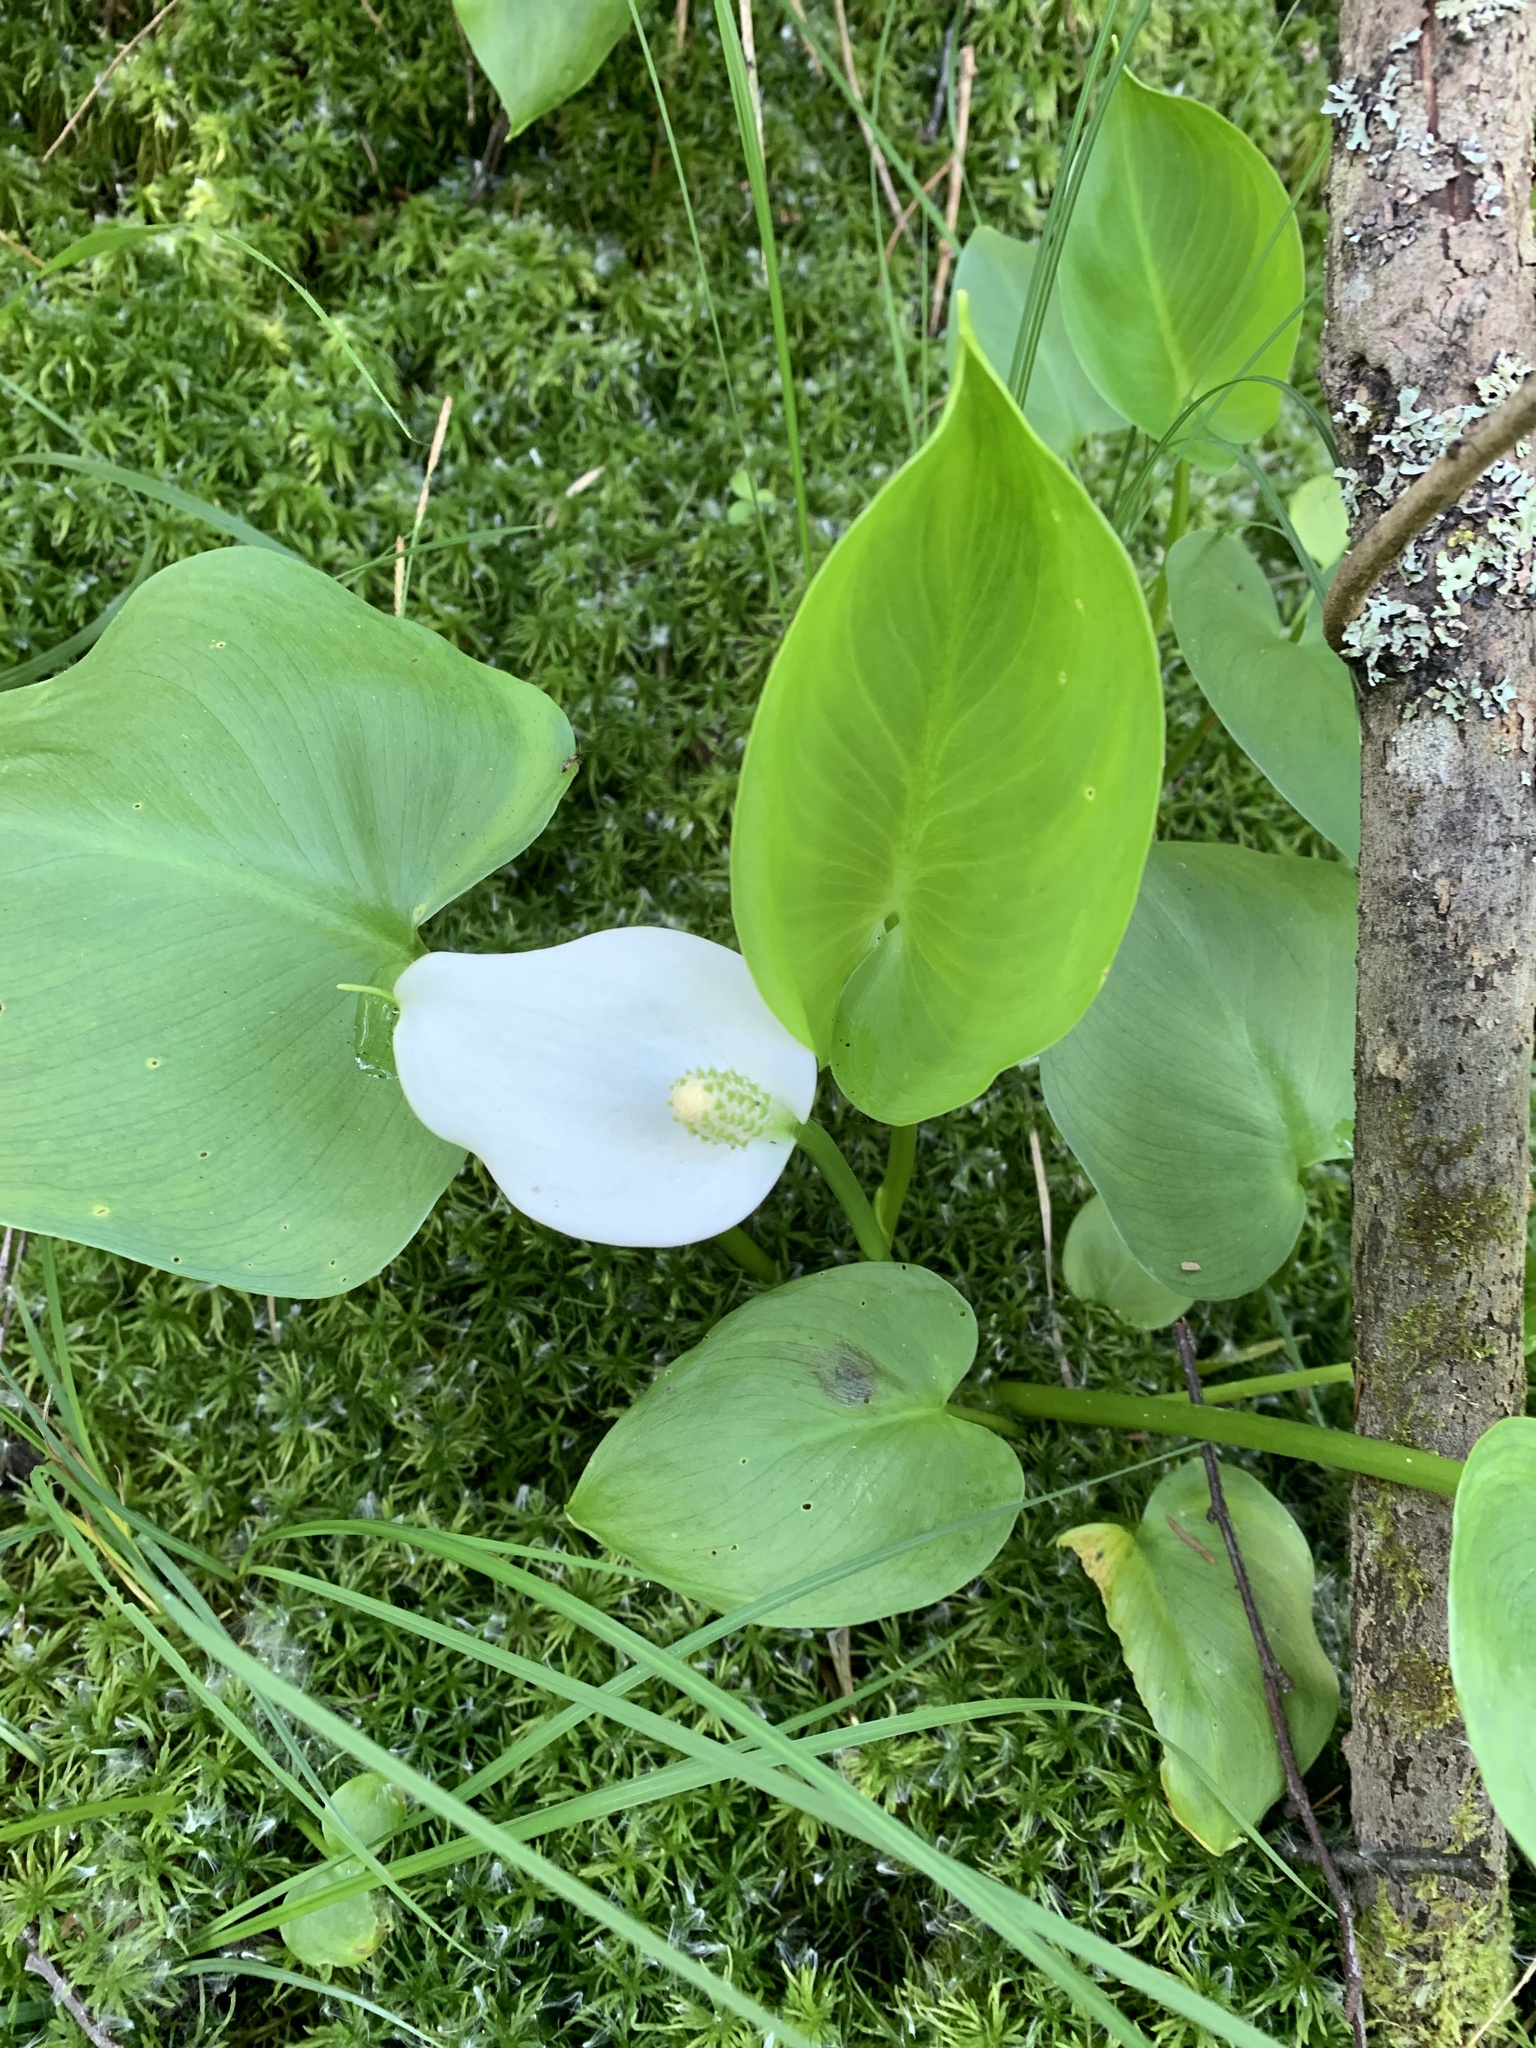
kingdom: Plantae
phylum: Tracheophyta
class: Liliopsida
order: Alismatales
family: Araceae
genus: Calla
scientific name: Calla palustris
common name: Bog arum
